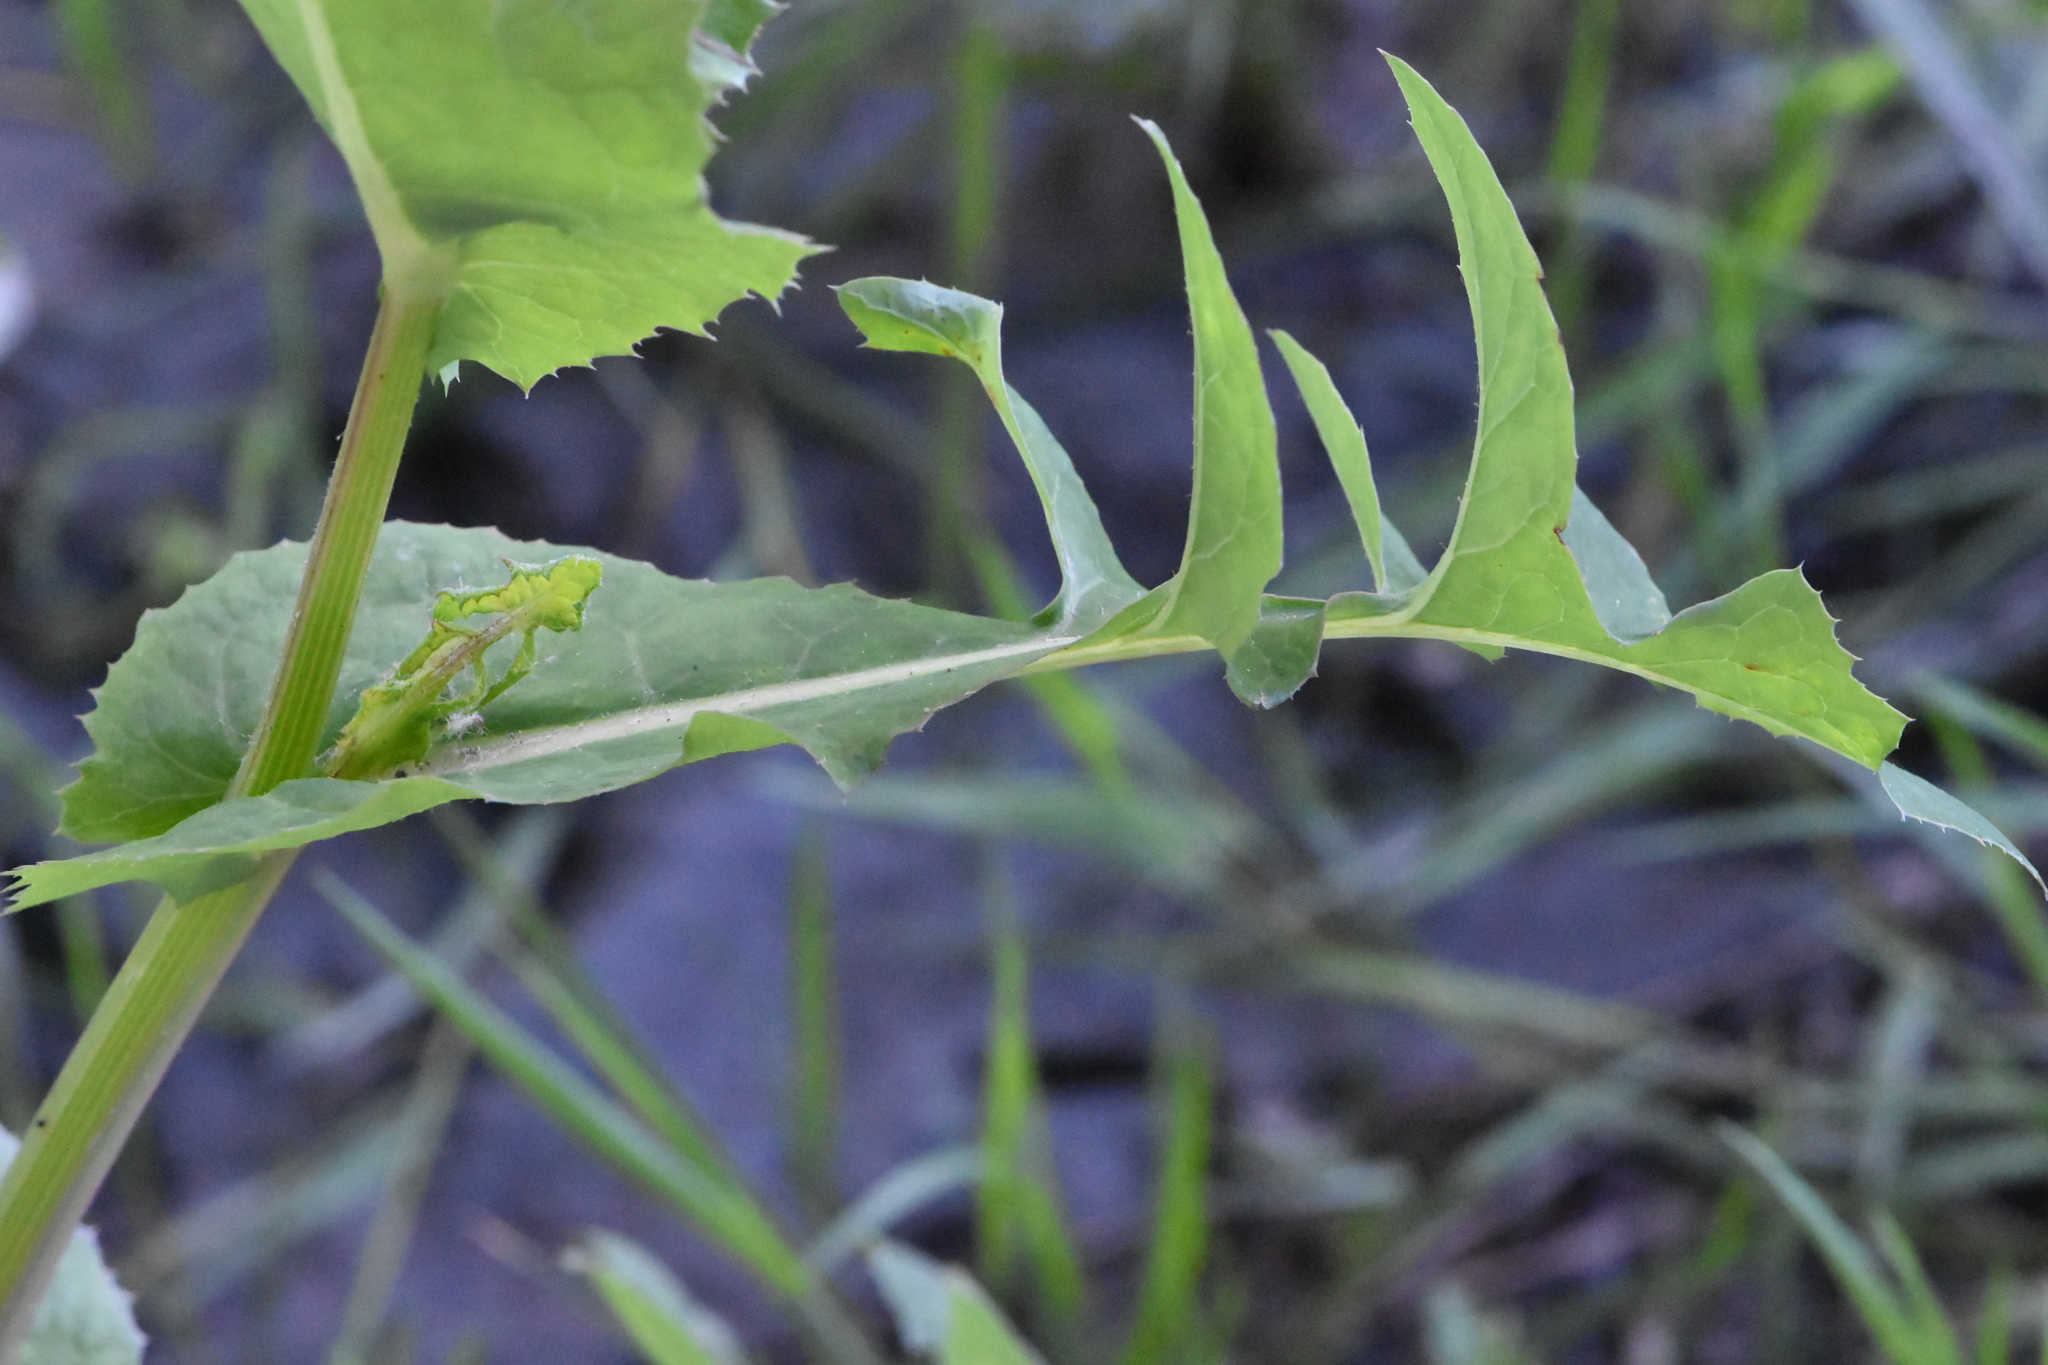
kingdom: Plantae
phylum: Tracheophyta
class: Magnoliopsida
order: Asterales
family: Asteraceae
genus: Sonchus
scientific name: Sonchus oleraceus
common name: Common sowthistle
